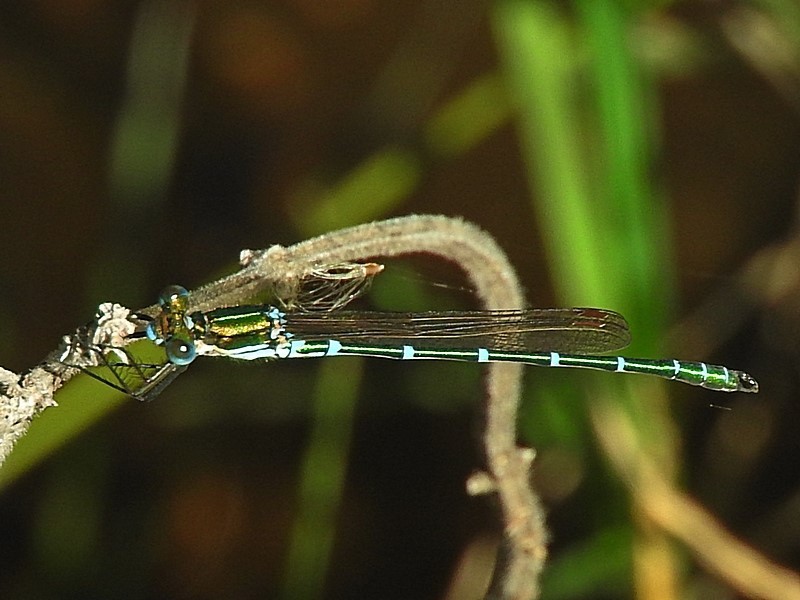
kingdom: Animalia
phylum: Arthropoda
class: Insecta
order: Odonata
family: Lestidae
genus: Austrolestes
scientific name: Austrolestes cingulatus
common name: Metallic ringtail
